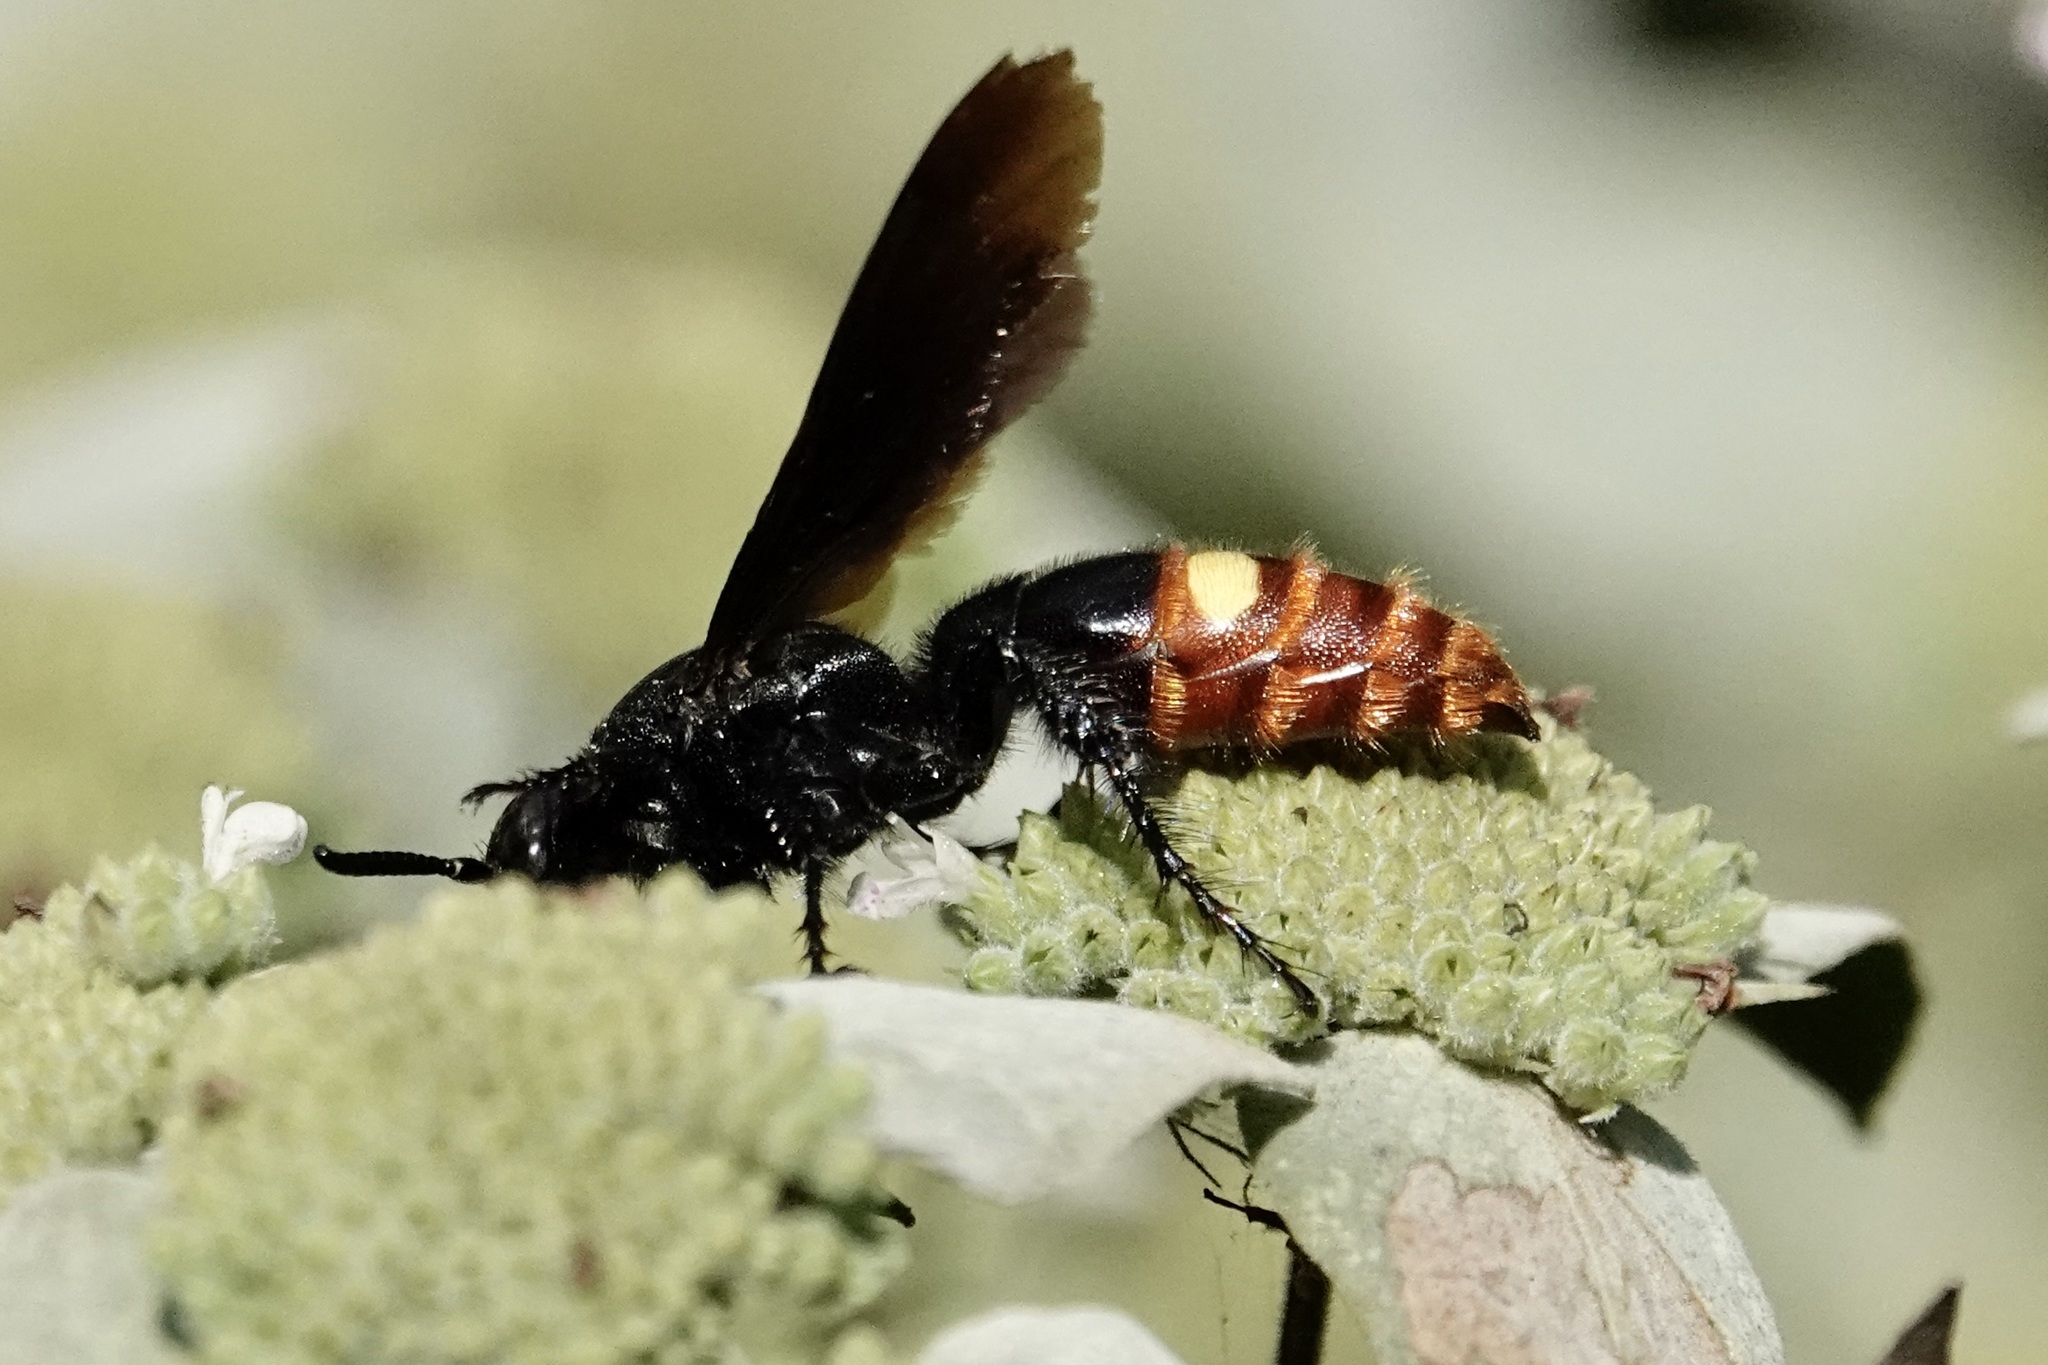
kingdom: Animalia
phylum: Arthropoda
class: Insecta
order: Hymenoptera
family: Scoliidae
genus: Scolia
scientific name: Scolia dubia
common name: Blue-winged scoliid wasp
